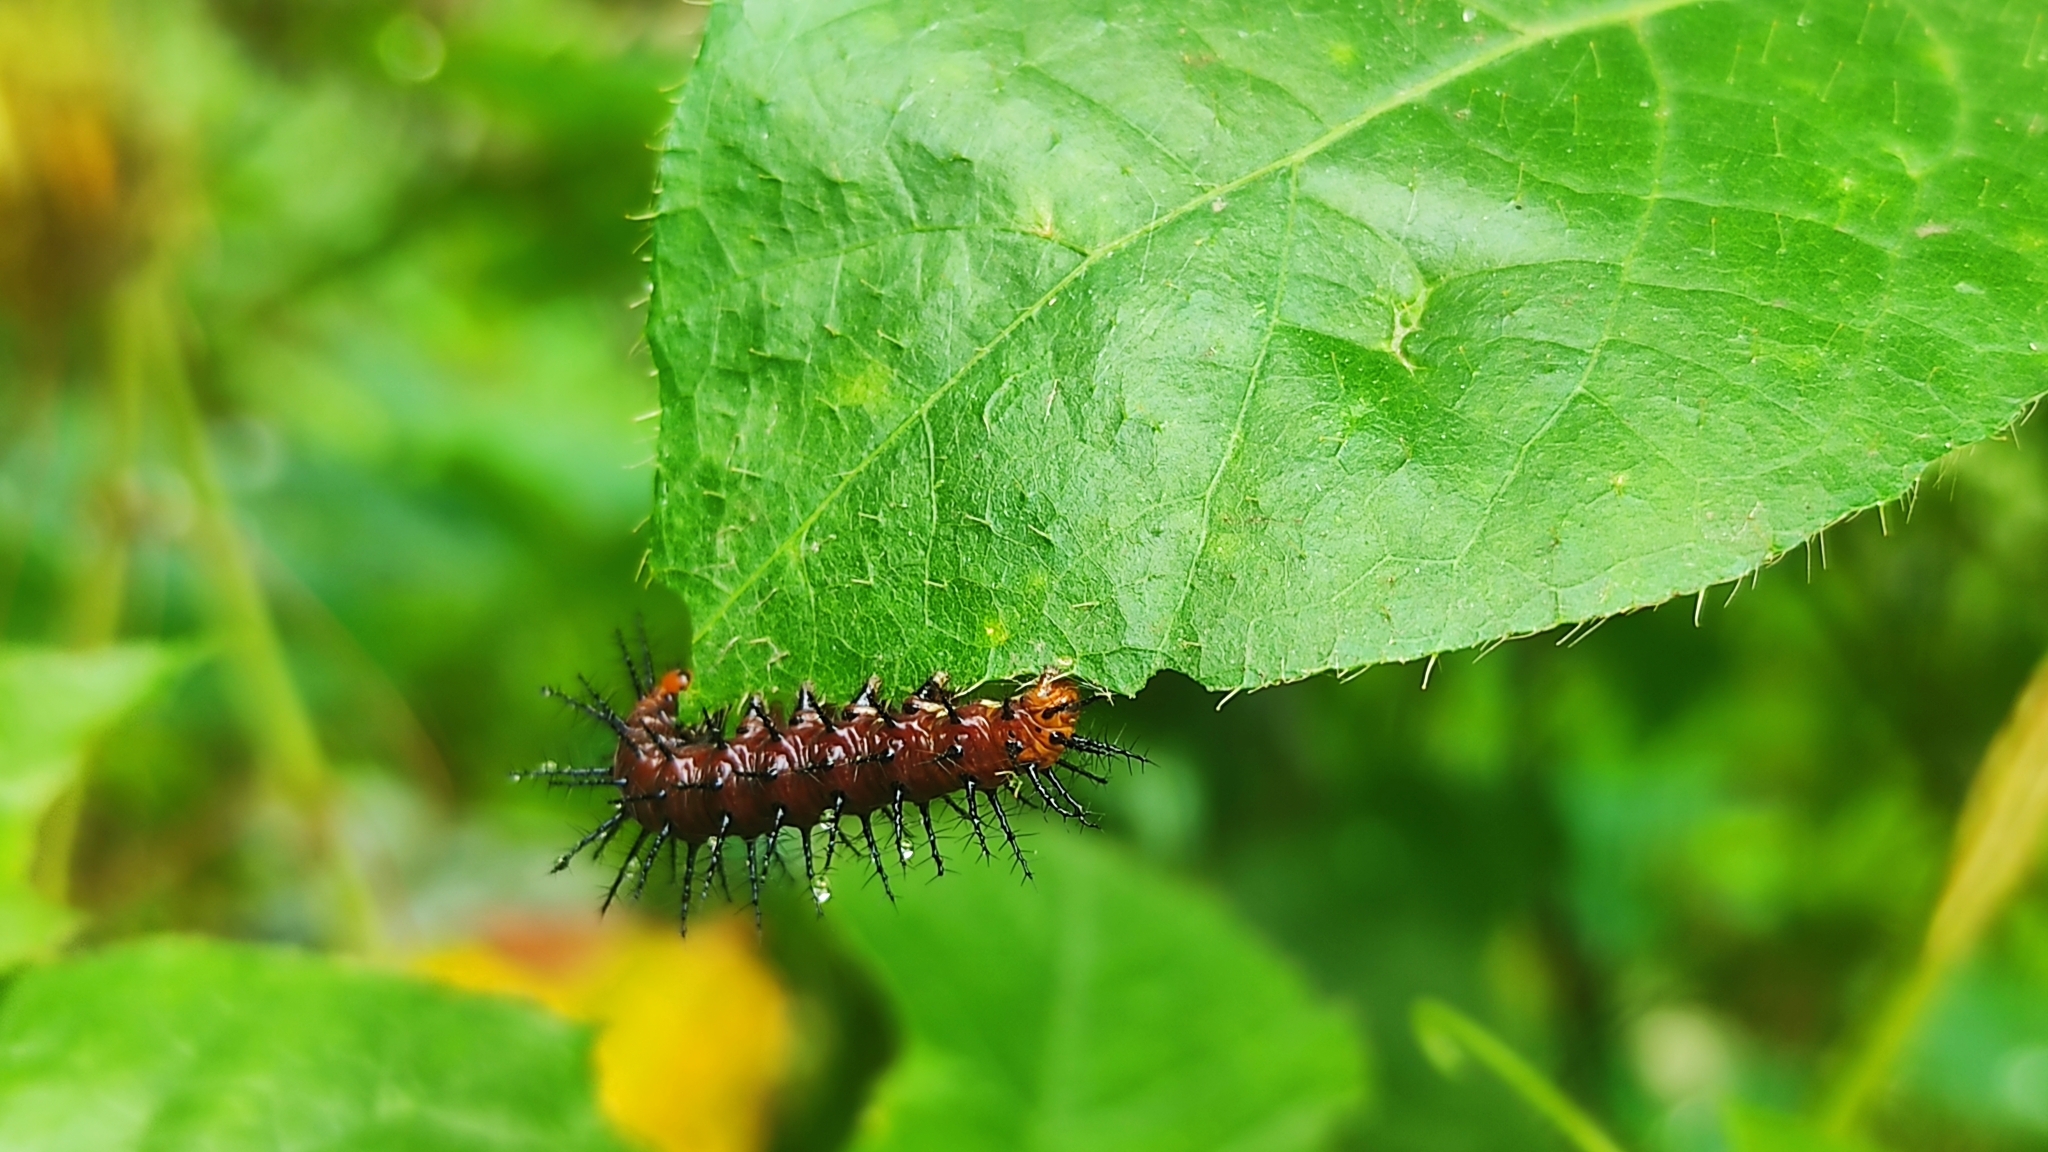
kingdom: Animalia
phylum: Arthropoda
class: Insecta
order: Lepidoptera
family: Nymphalidae
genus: Acraea
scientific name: Acraea terpsicore
